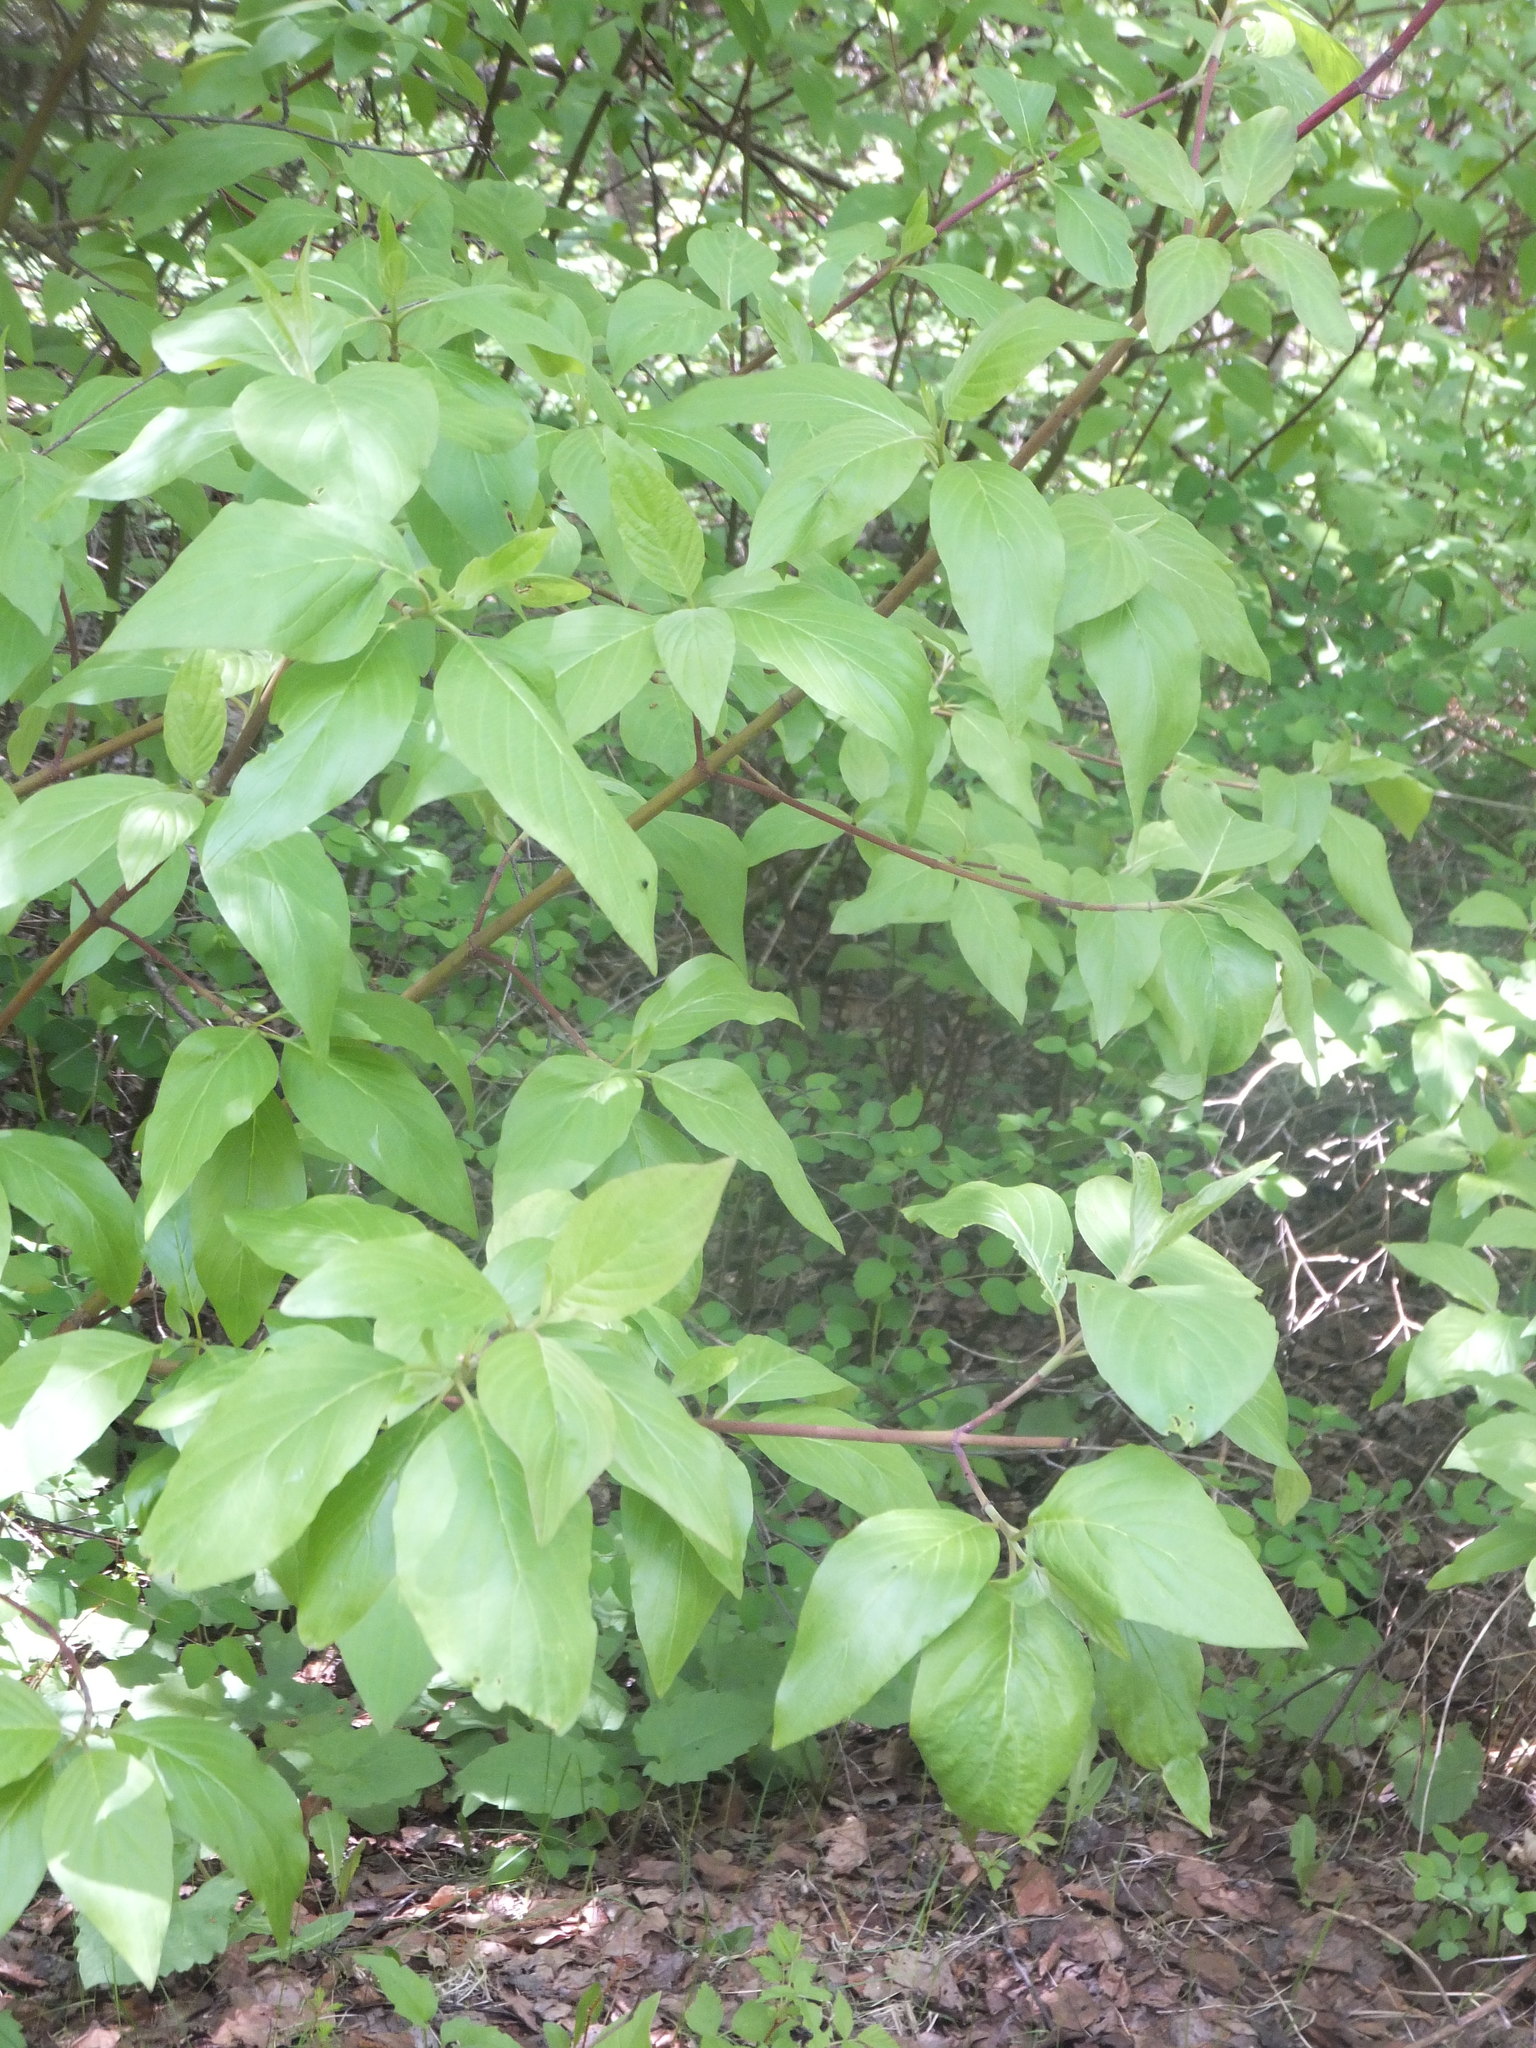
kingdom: Plantae
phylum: Tracheophyta
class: Magnoliopsida
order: Cornales
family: Cornaceae
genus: Cornus
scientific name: Cornus sericea
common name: Red-osier dogwood
